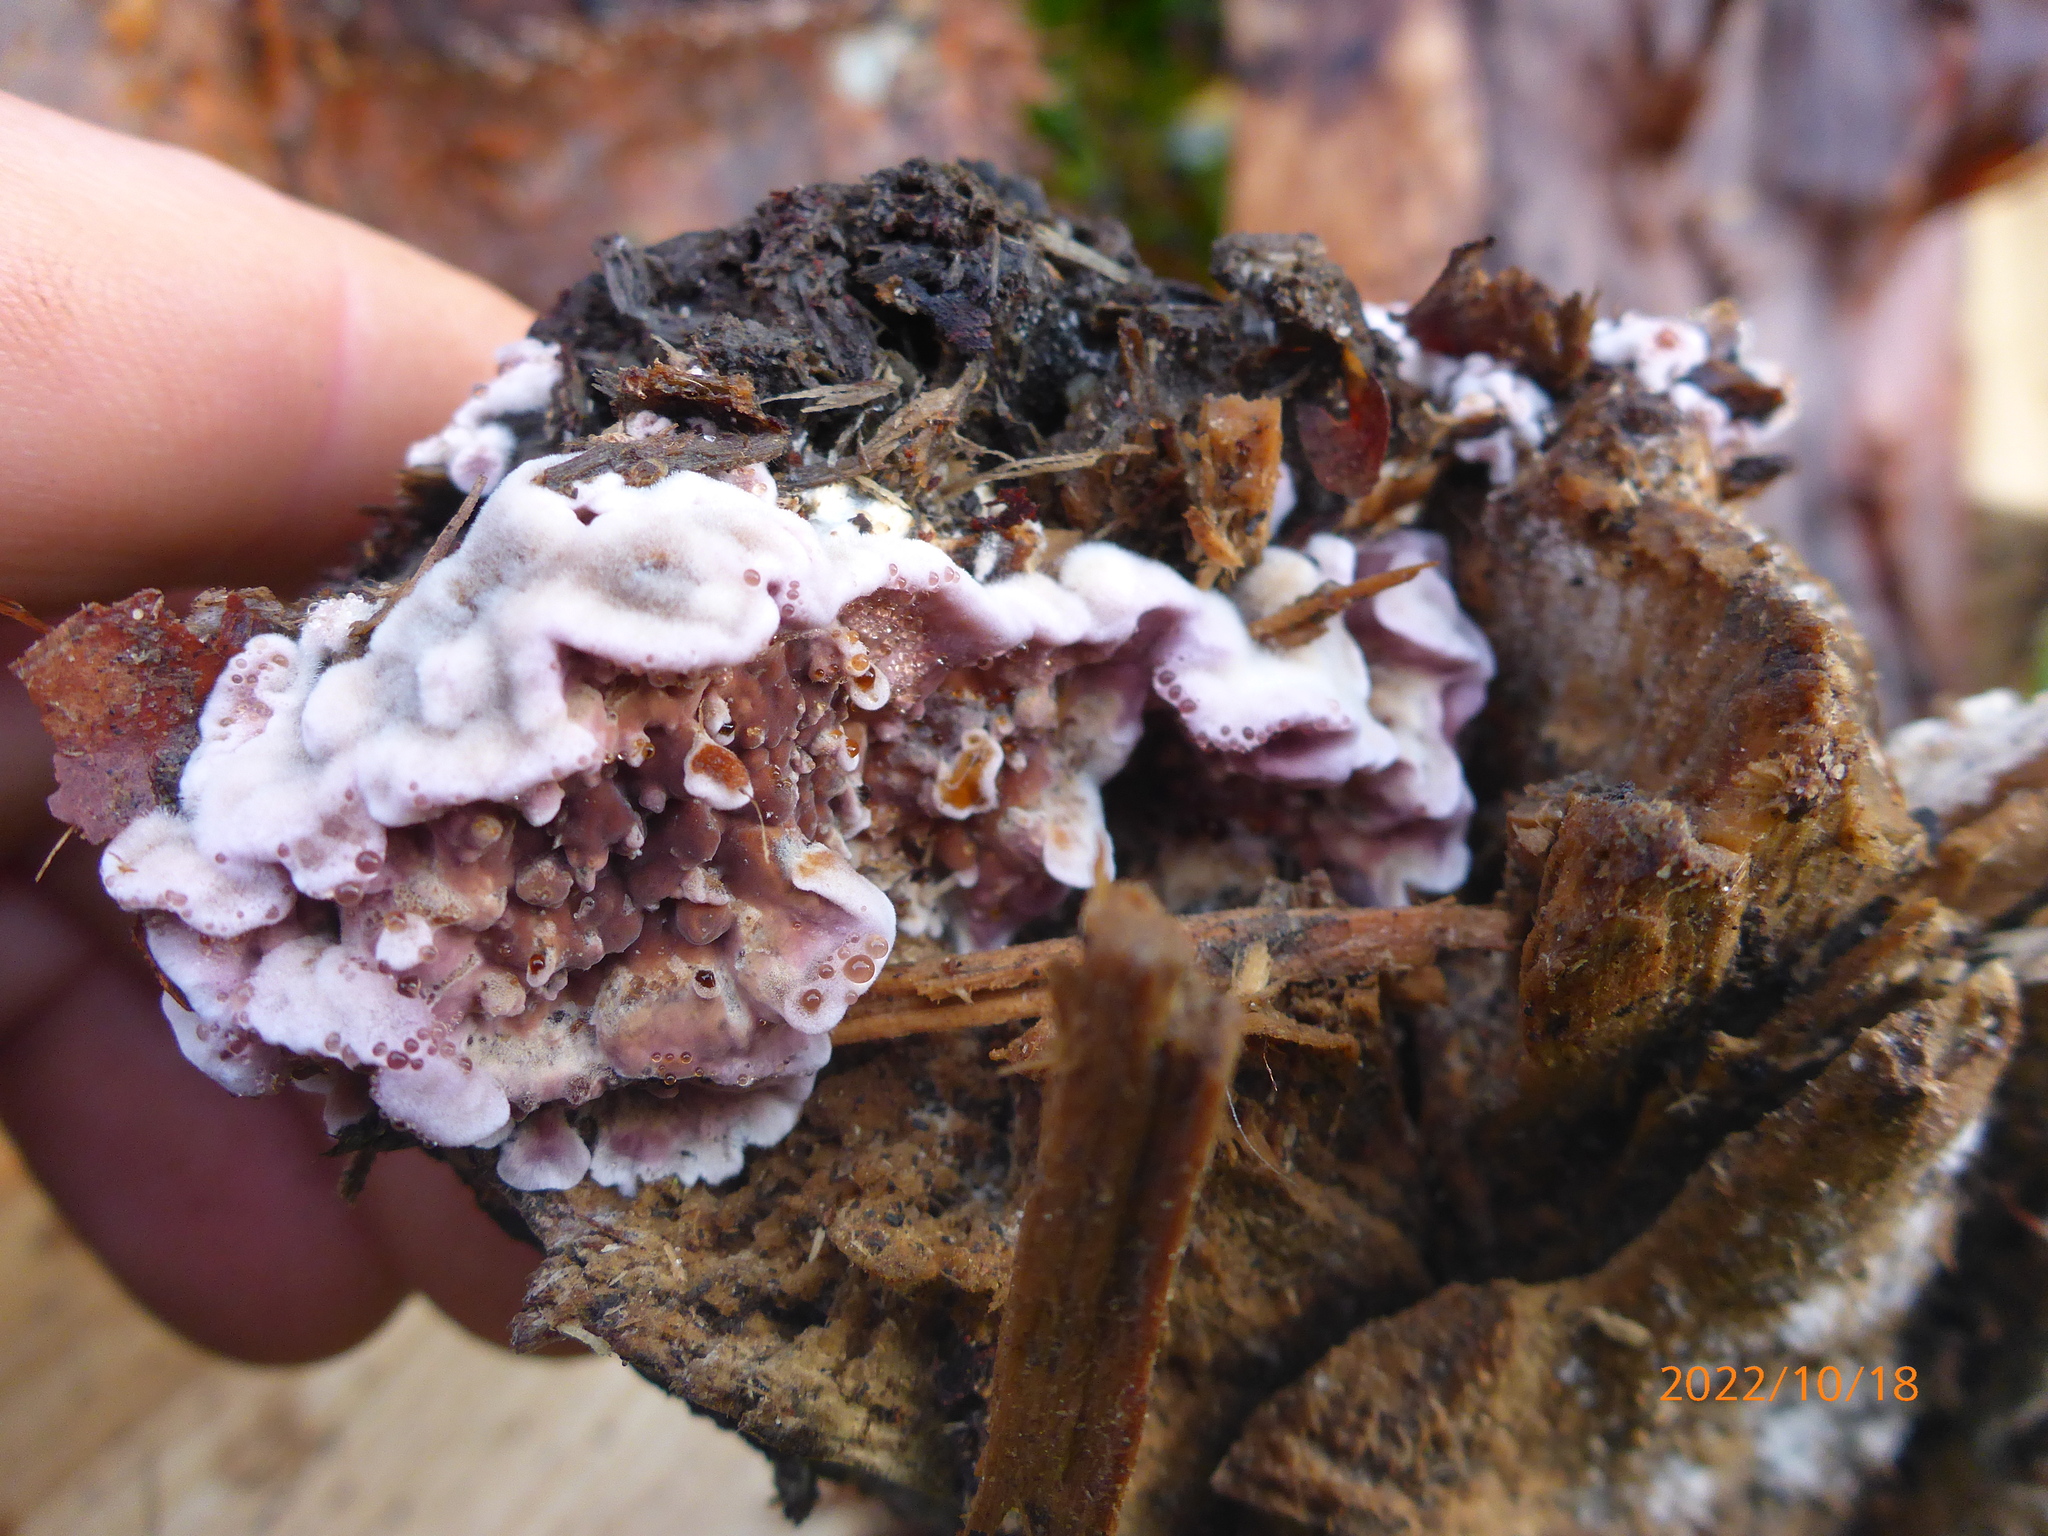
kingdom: Fungi
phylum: Basidiomycota
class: Agaricomycetes
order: Agaricales
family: Cyphellaceae
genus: Chondrostereum
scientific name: Chondrostereum purpureum
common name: Silver leaf disease
